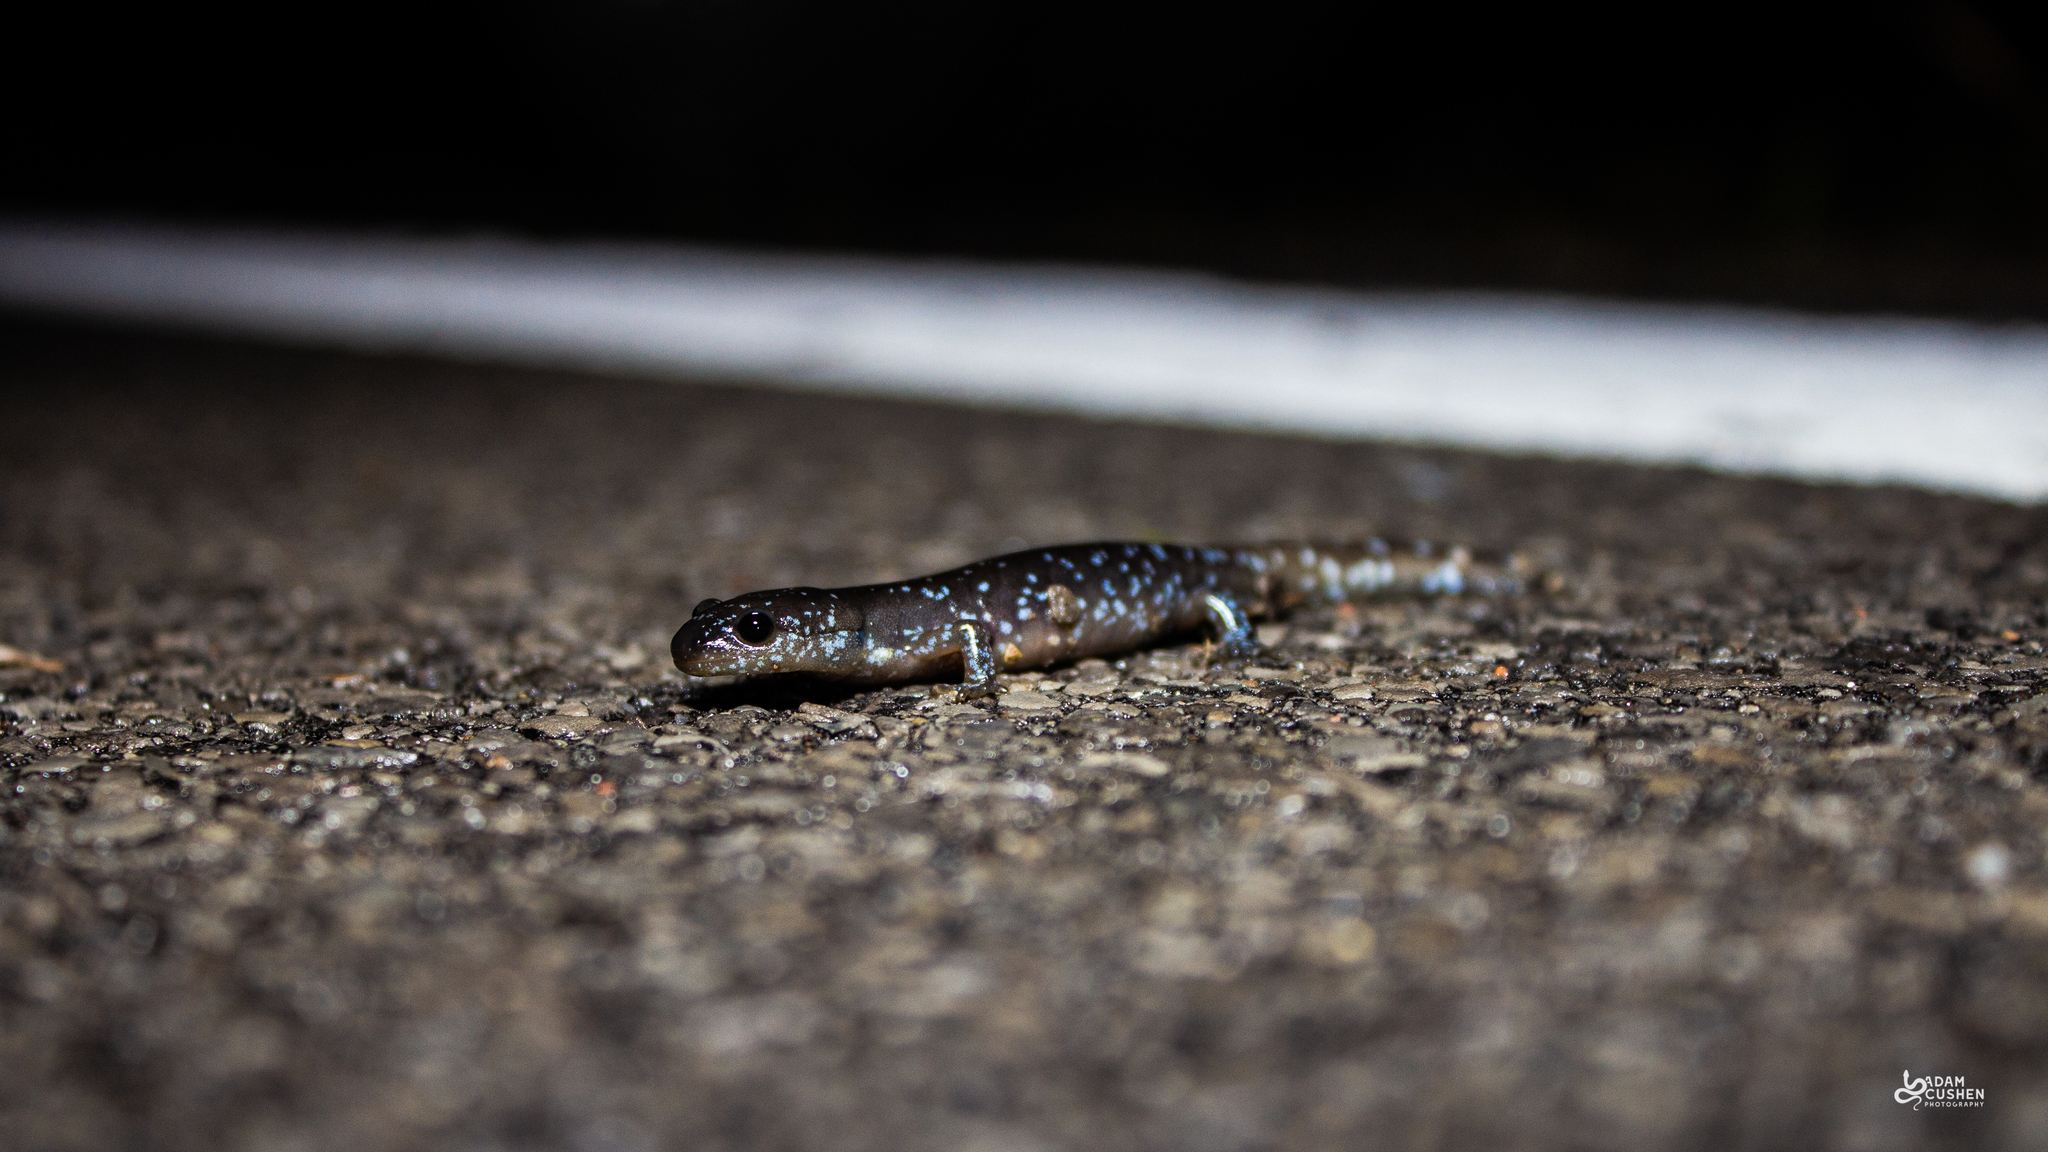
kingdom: Animalia
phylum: Chordata
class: Amphibia
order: Caudata
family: Ambystomatidae
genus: Ambystoma
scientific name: Ambystoma laterale
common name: Blue-spotted salamander
